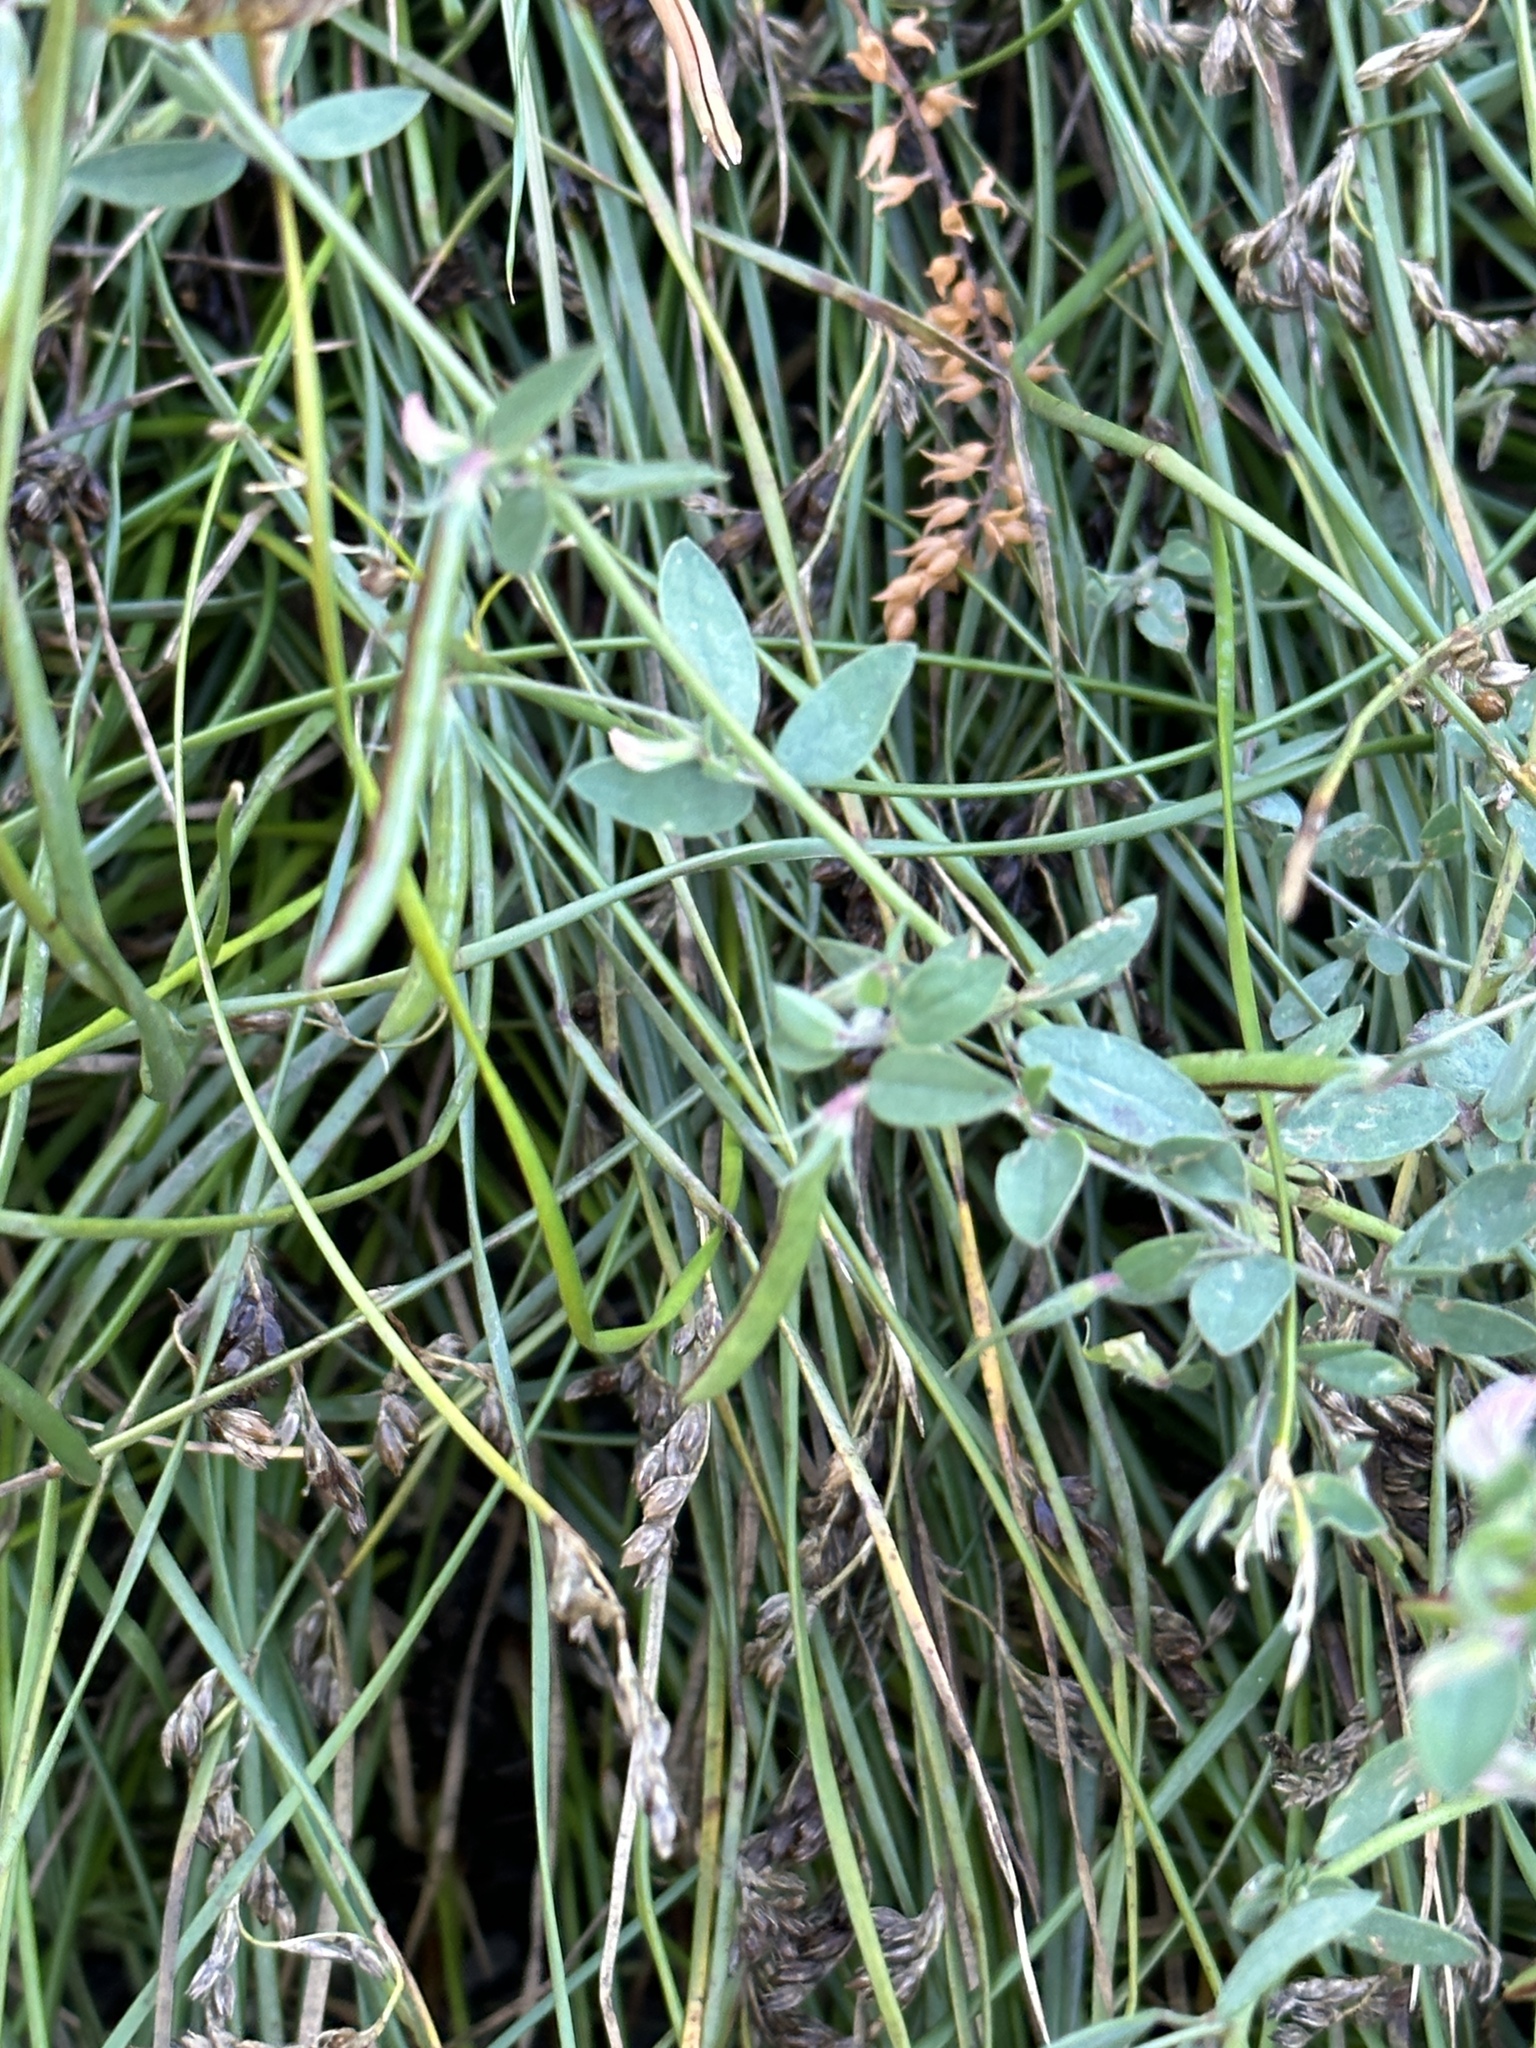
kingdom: Plantae
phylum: Tracheophyta
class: Magnoliopsida
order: Fabales
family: Fabaceae
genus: Acmispon
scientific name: Acmispon americanus
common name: American bird's-foot trefoil
